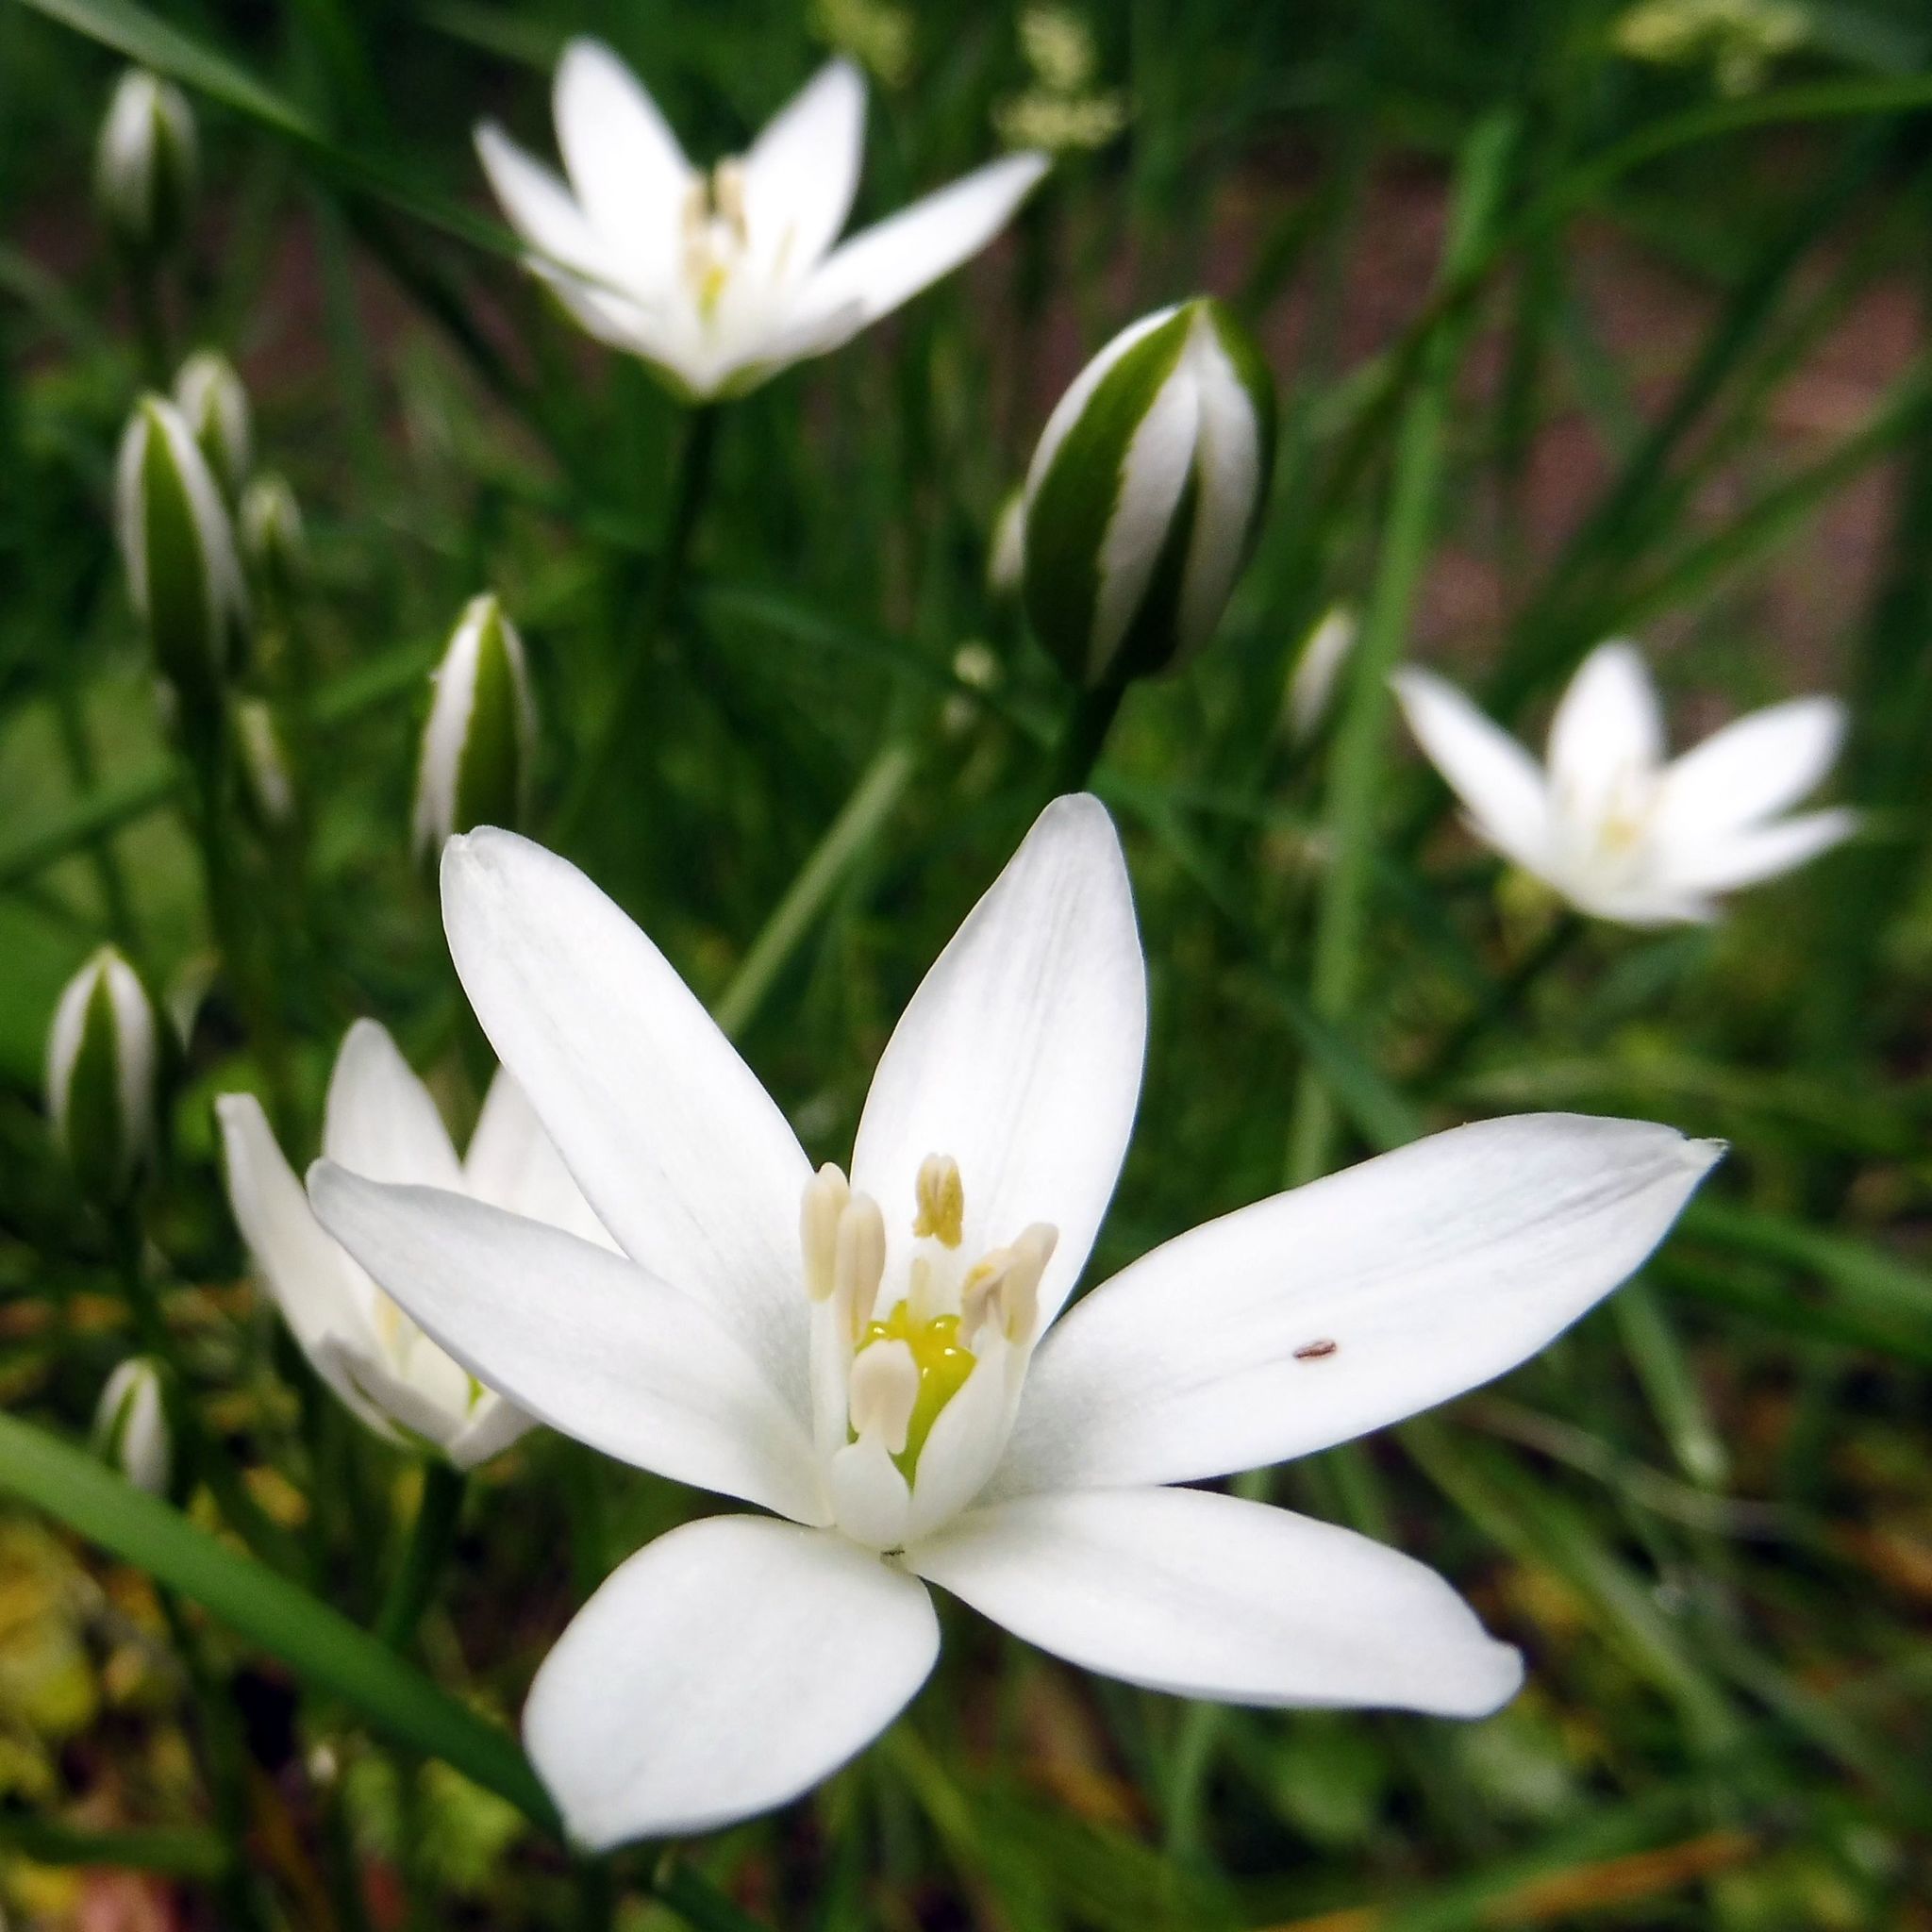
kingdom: Plantae
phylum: Tracheophyta
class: Liliopsida
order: Asparagales
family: Asparagaceae
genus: Ornithogalum
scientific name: Ornithogalum umbellatum
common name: Garden star-of-bethlehem
